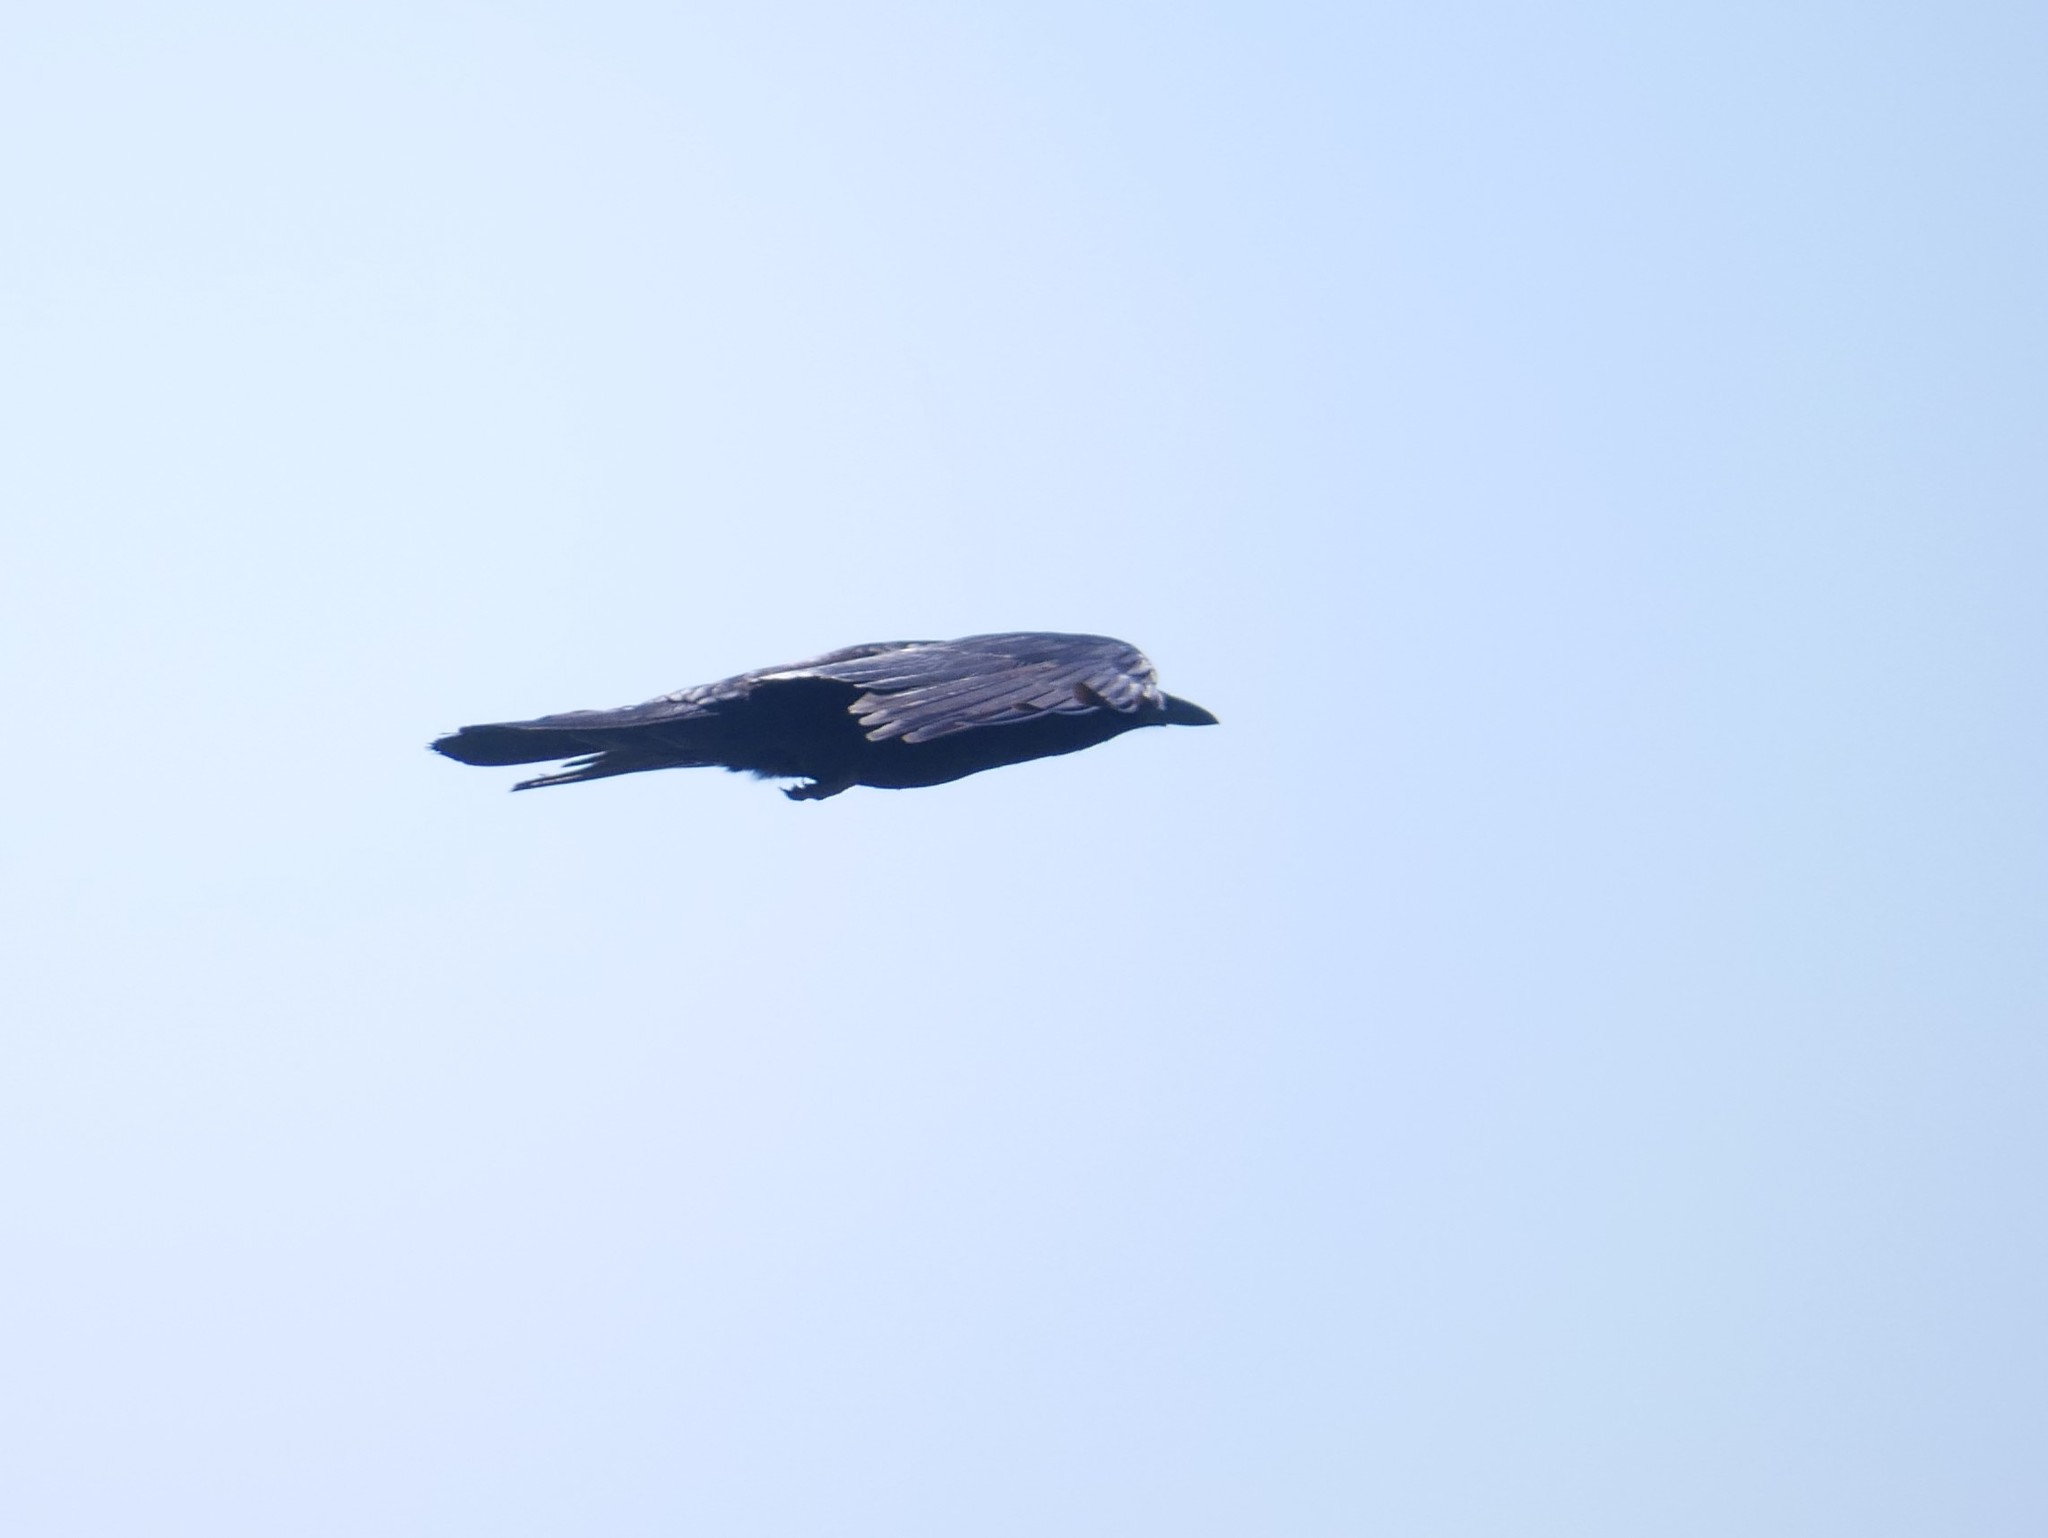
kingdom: Animalia
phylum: Chordata
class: Aves
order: Passeriformes
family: Corvidae
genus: Corvus
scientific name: Corvus brachyrhynchos
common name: American crow
